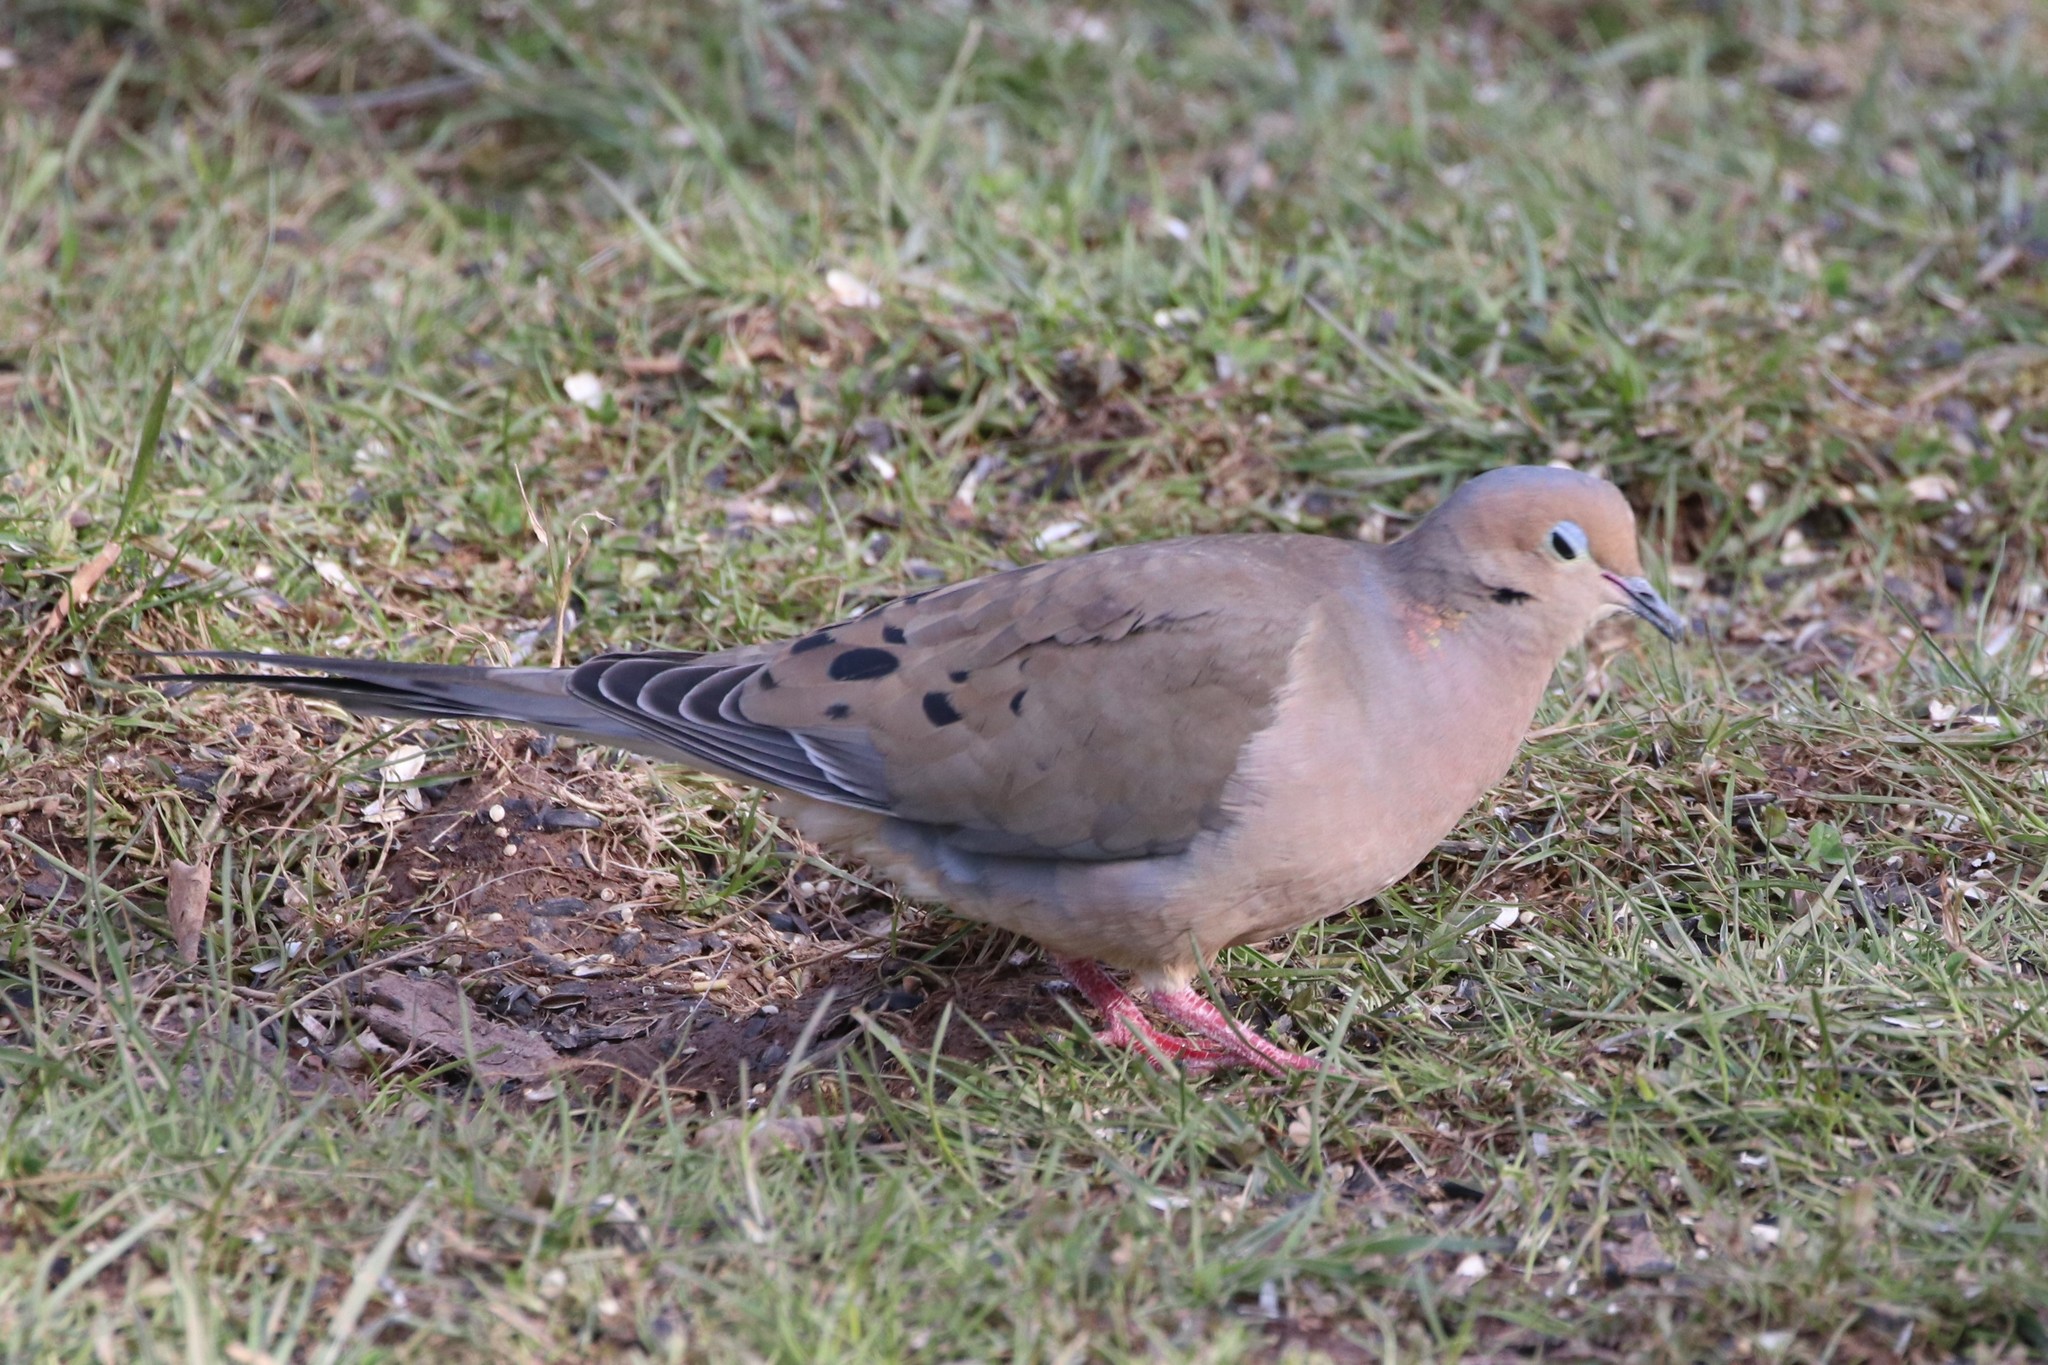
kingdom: Animalia
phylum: Chordata
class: Aves
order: Columbiformes
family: Columbidae
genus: Zenaida
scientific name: Zenaida macroura
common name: Mourning dove
